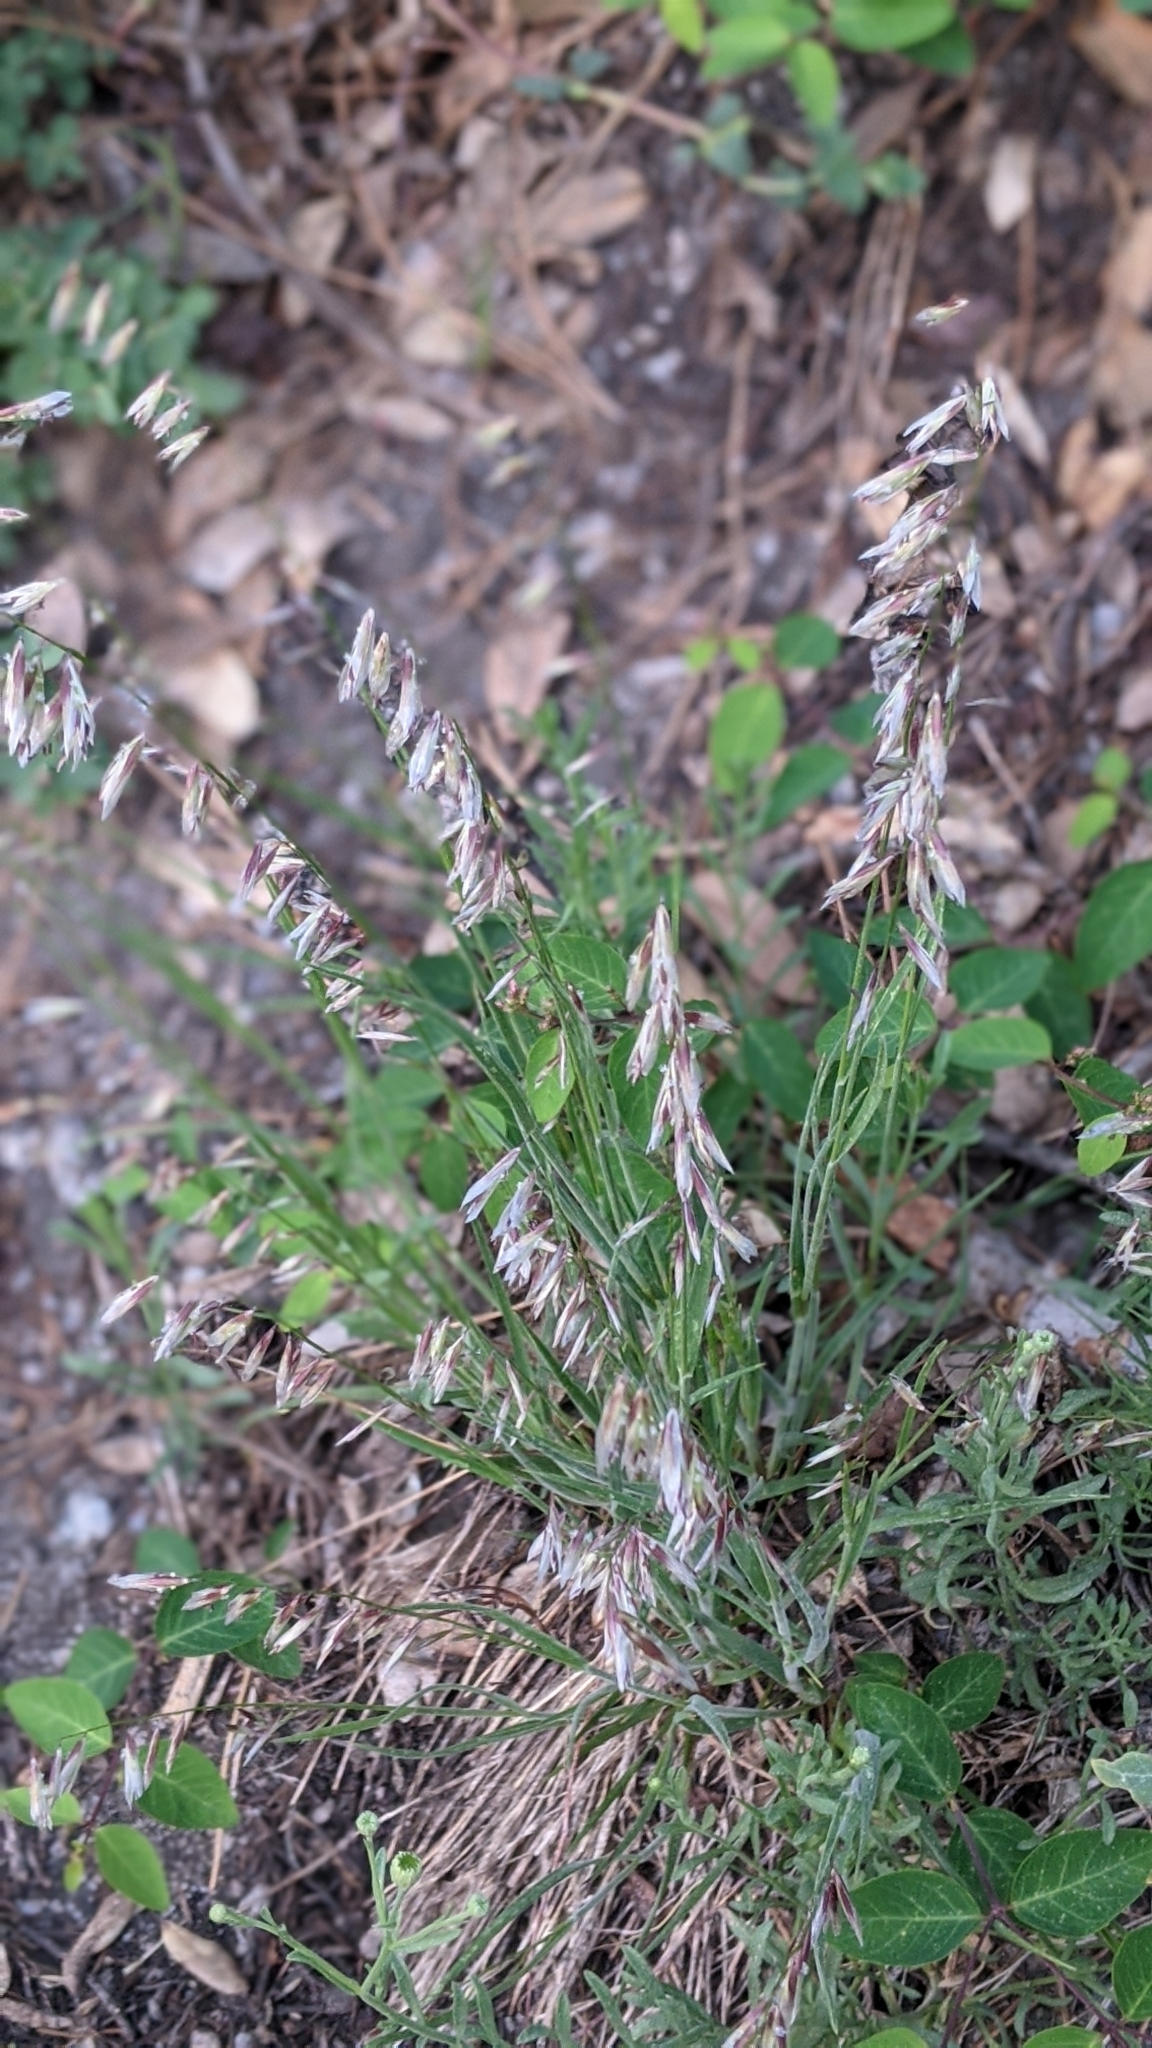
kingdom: Plantae
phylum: Tracheophyta
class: Liliopsida
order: Poales
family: Poaceae
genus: Melica
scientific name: Melica stricta
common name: Rock melic
